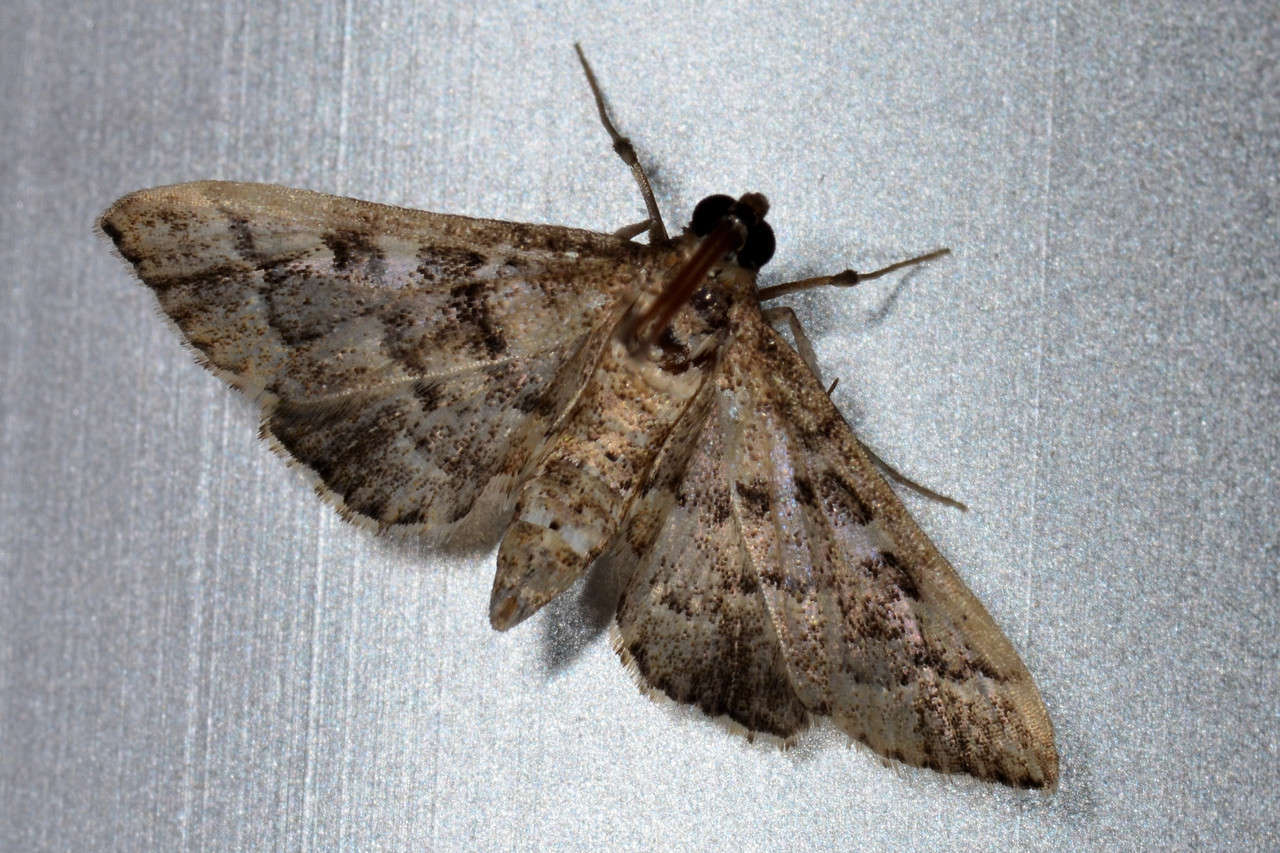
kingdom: Animalia
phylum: Arthropoda
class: Insecta
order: Lepidoptera
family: Crambidae
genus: Nacoleia
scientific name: Nacoleia rhoeoalis
